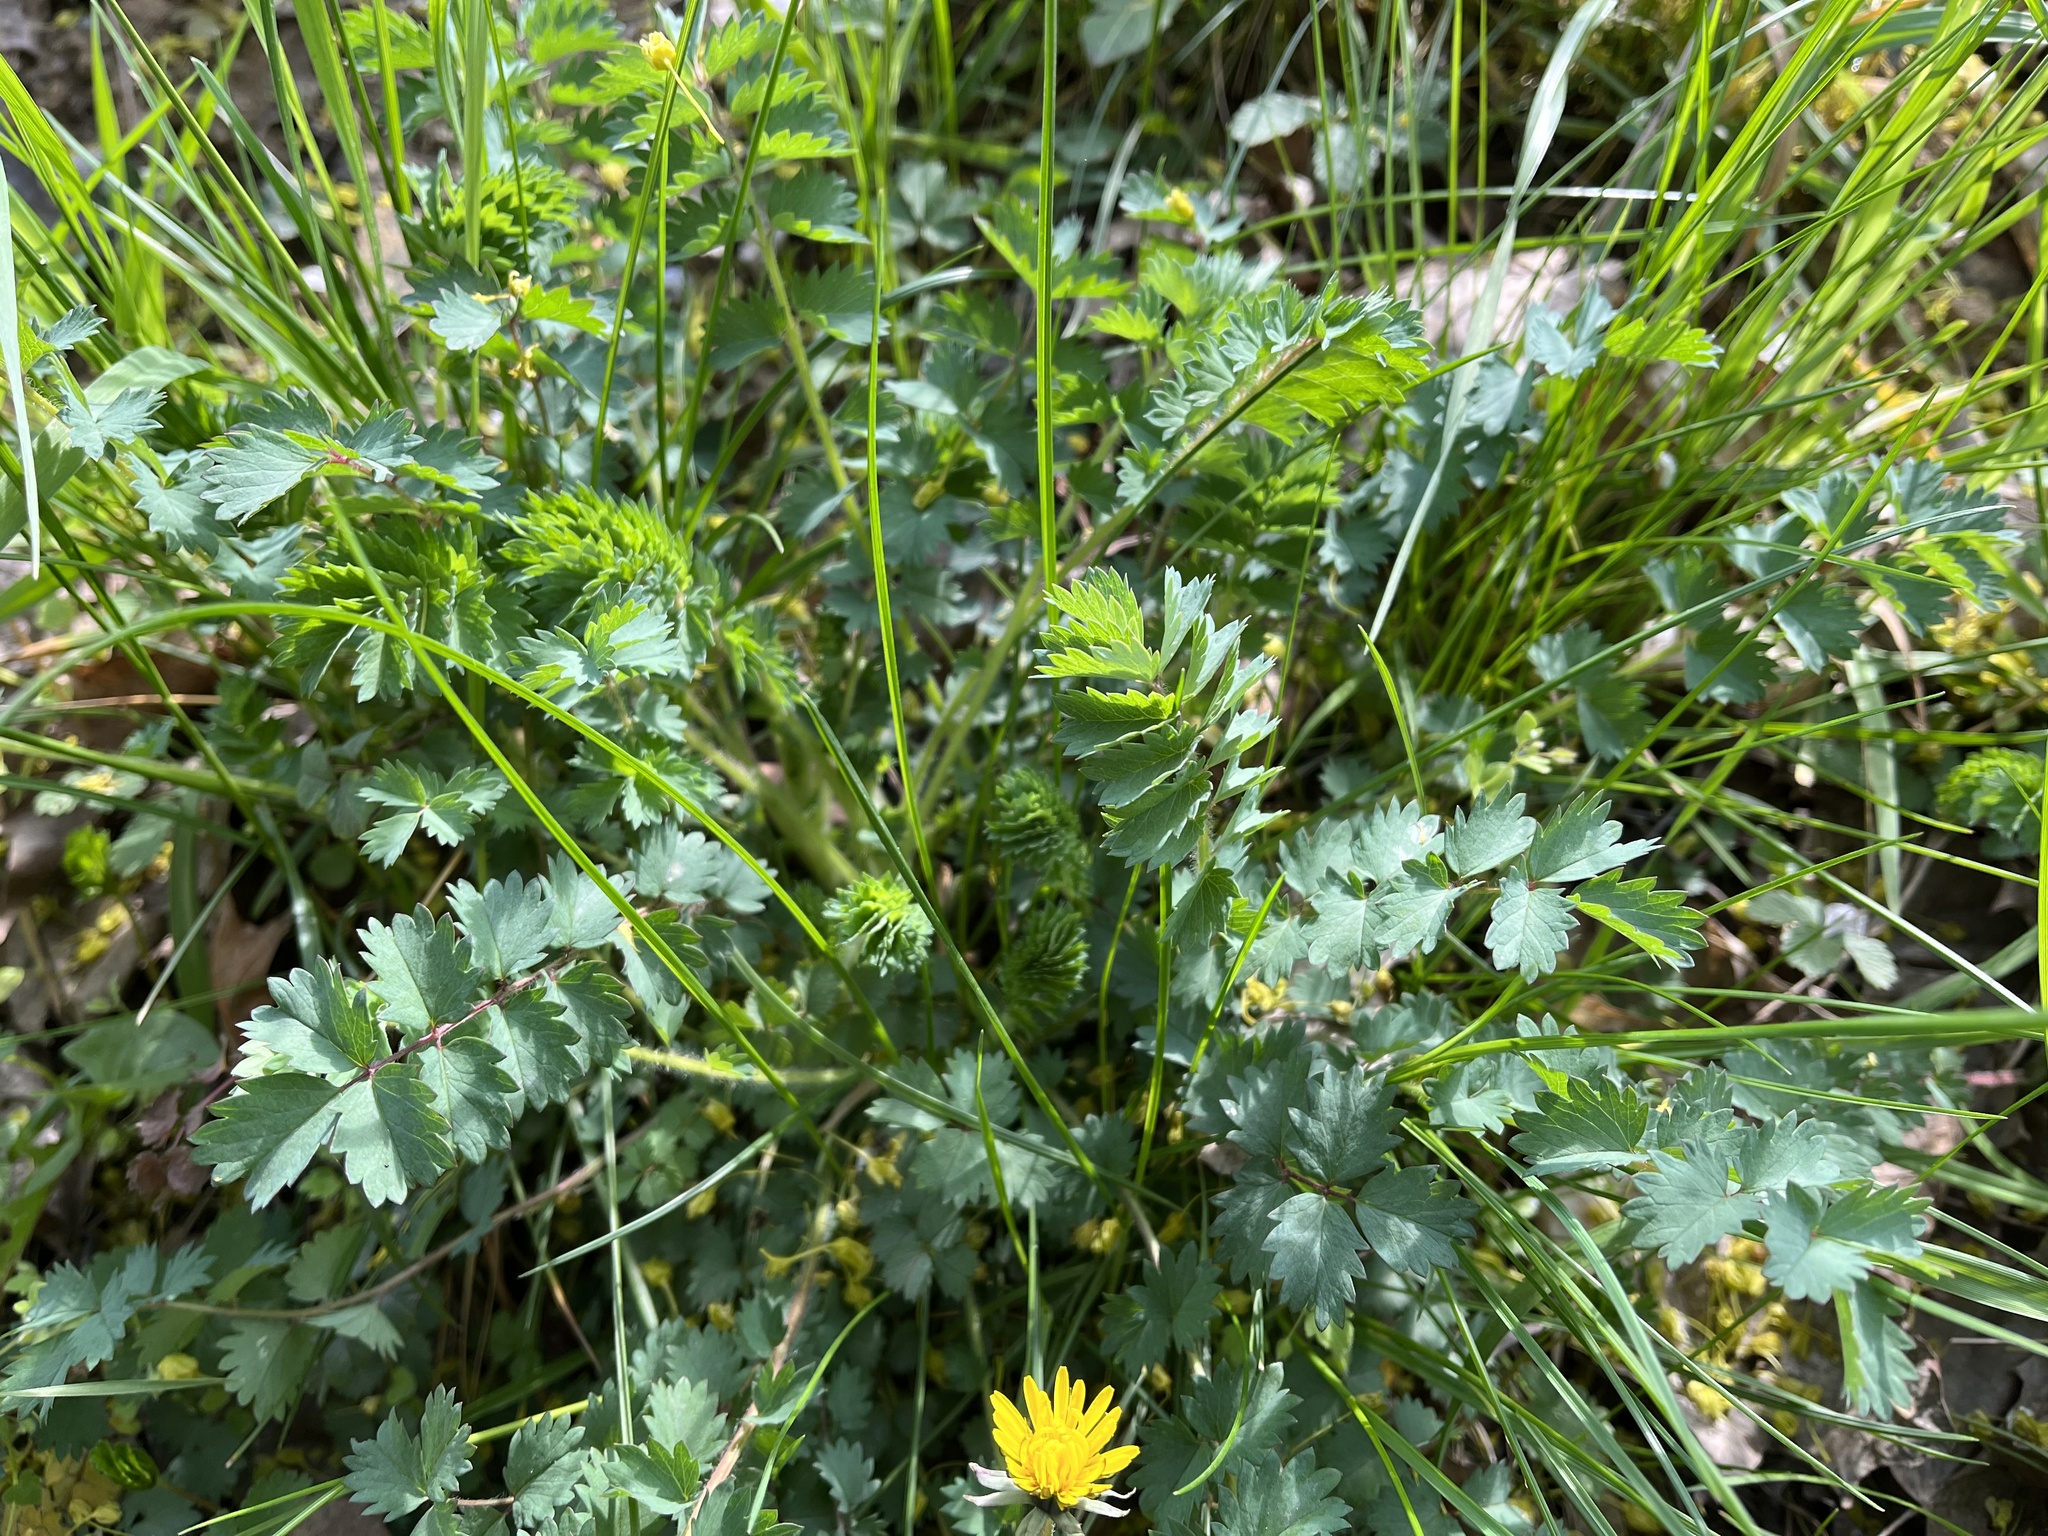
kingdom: Plantae
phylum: Tracheophyta
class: Magnoliopsida
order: Rosales
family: Rosaceae
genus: Poterium
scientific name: Poterium sanguisorba
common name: Salad burnet
